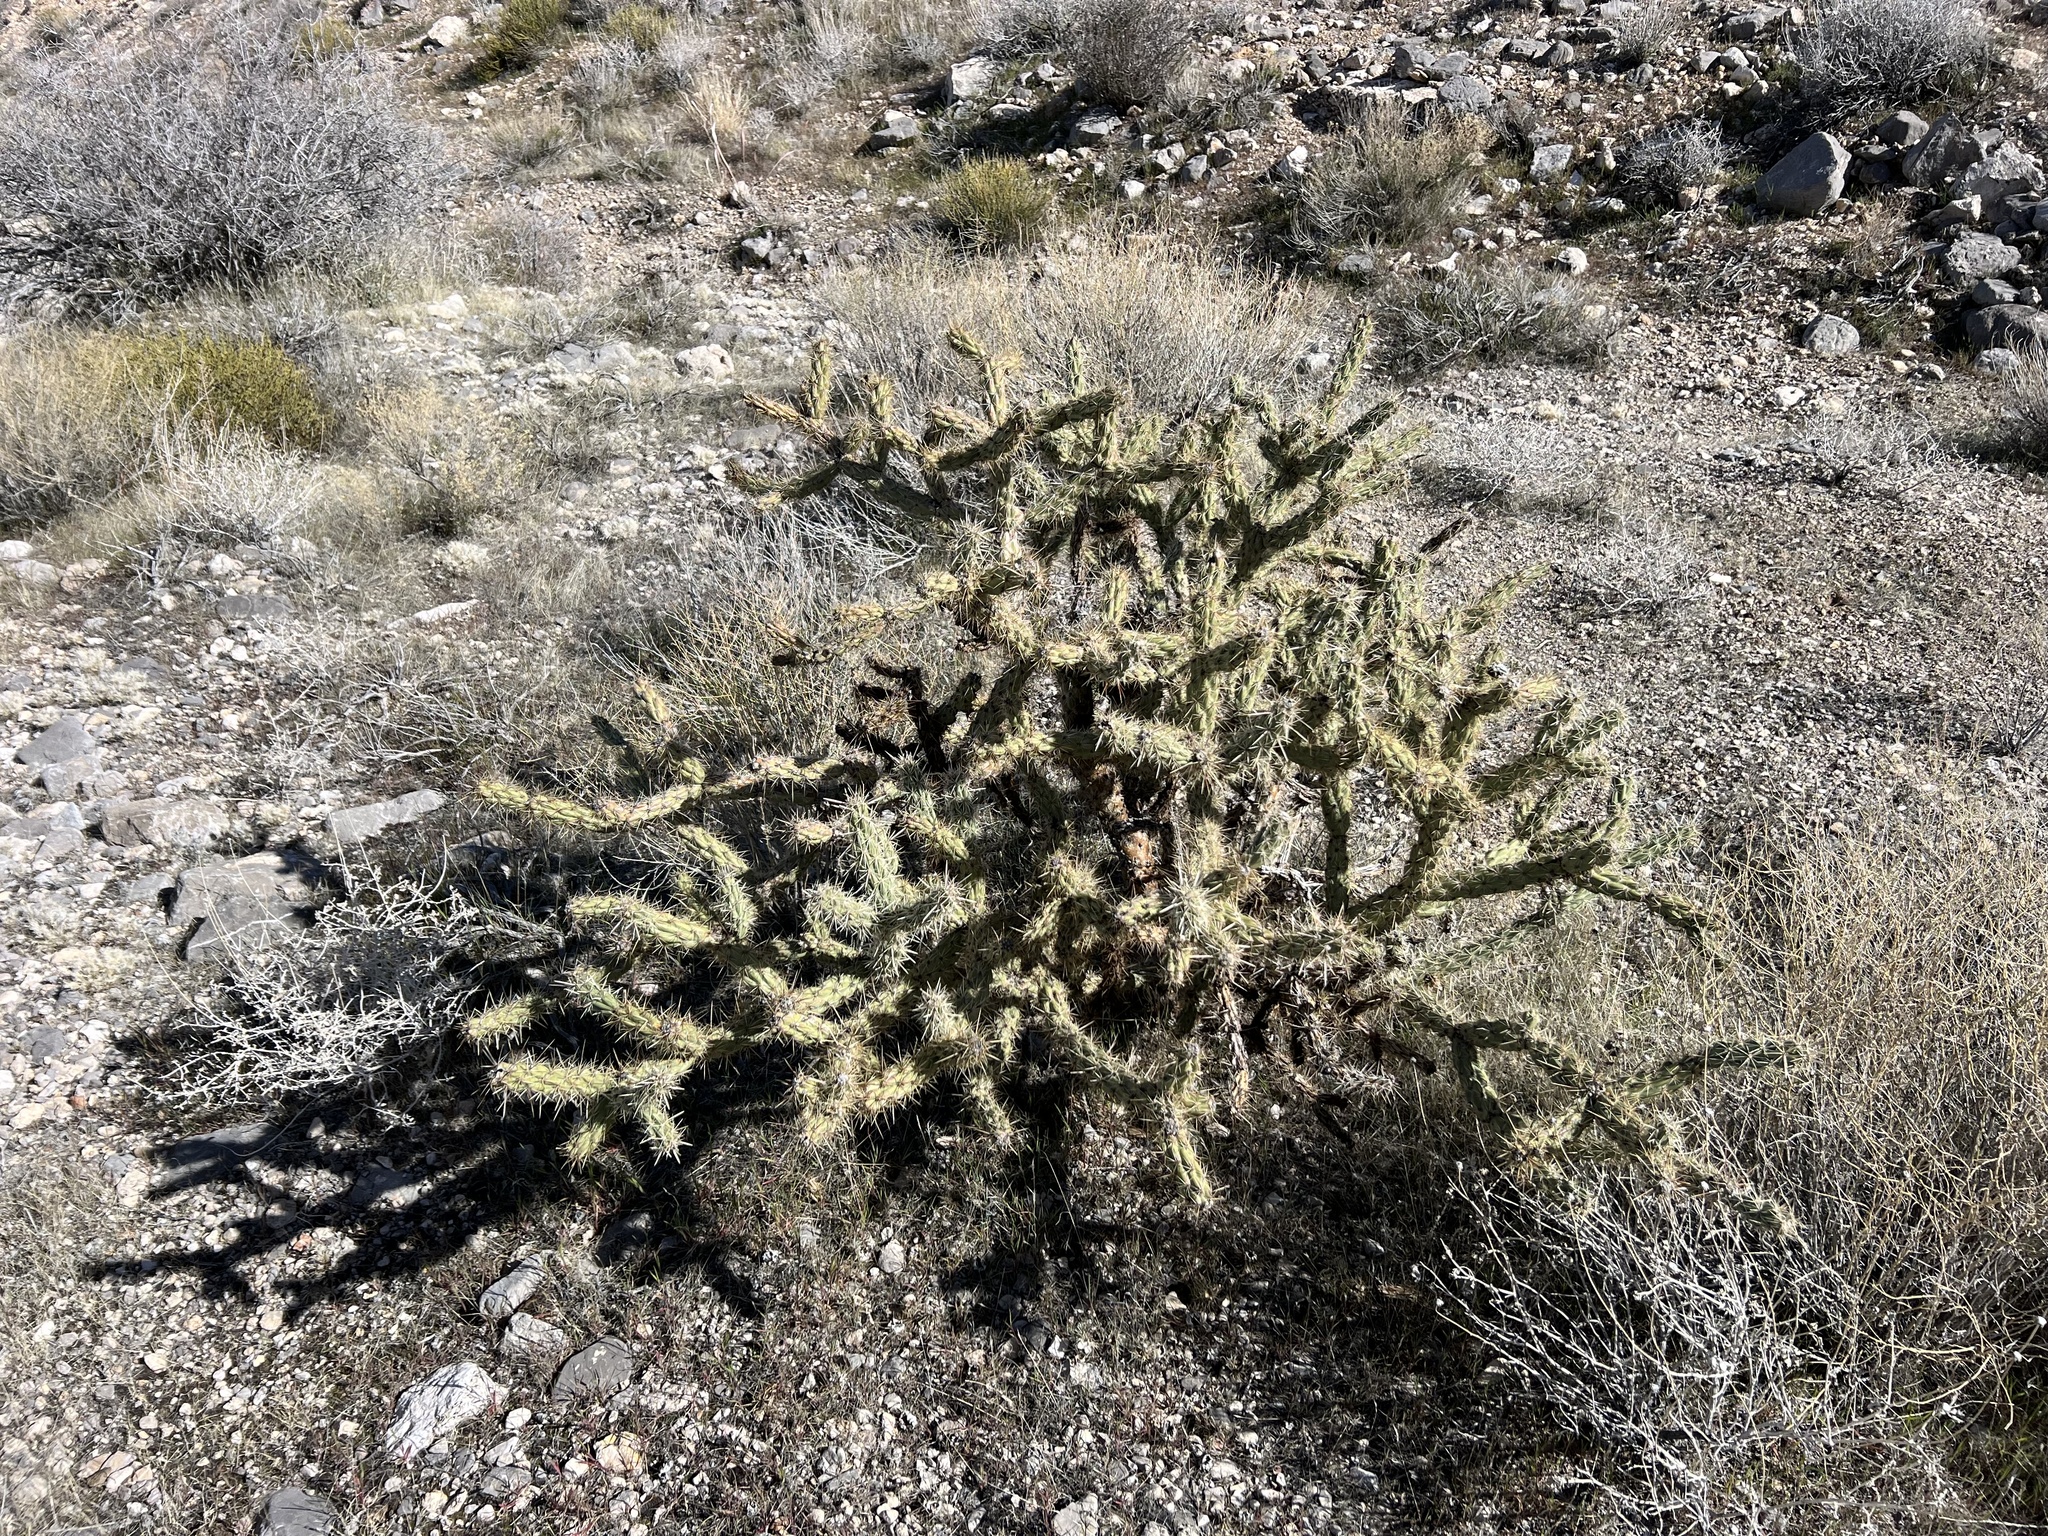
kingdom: Plantae
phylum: Tracheophyta
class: Magnoliopsida
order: Caryophyllales
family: Cactaceae
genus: Cylindropuntia
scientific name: Cylindropuntia acanthocarpa
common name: Buckhorn cholla
